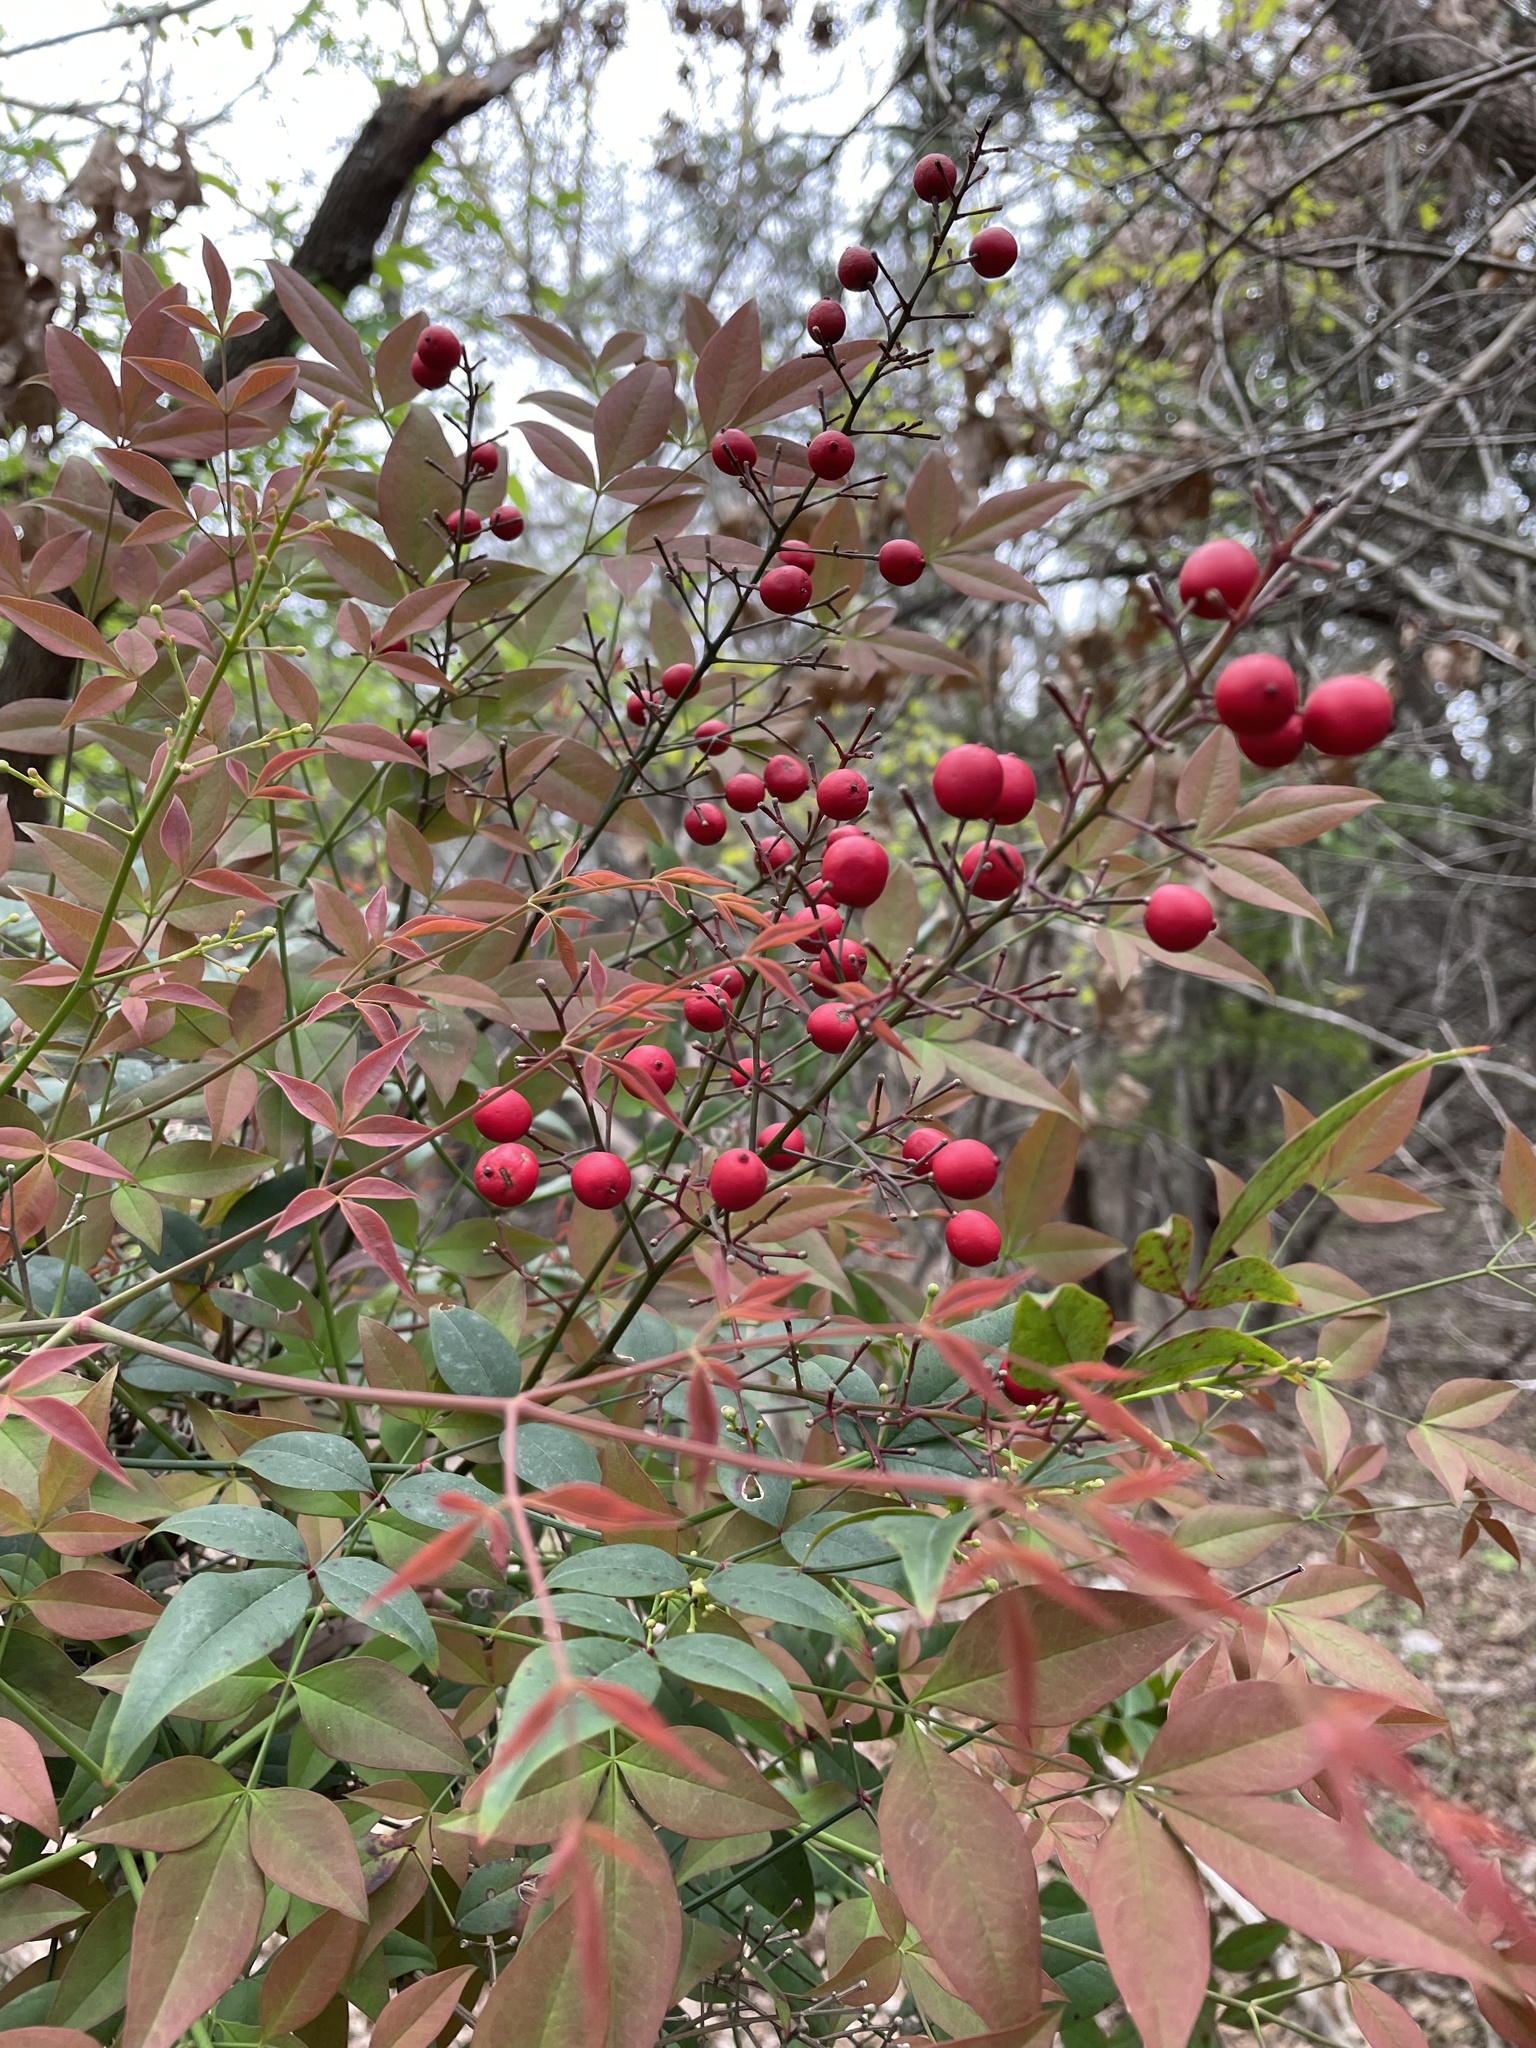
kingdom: Plantae
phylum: Tracheophyta
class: Magnoliopsida
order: Ranunculales
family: Berberidaceae
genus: Nandina
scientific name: Nandina domestica
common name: Sacred bamboo
